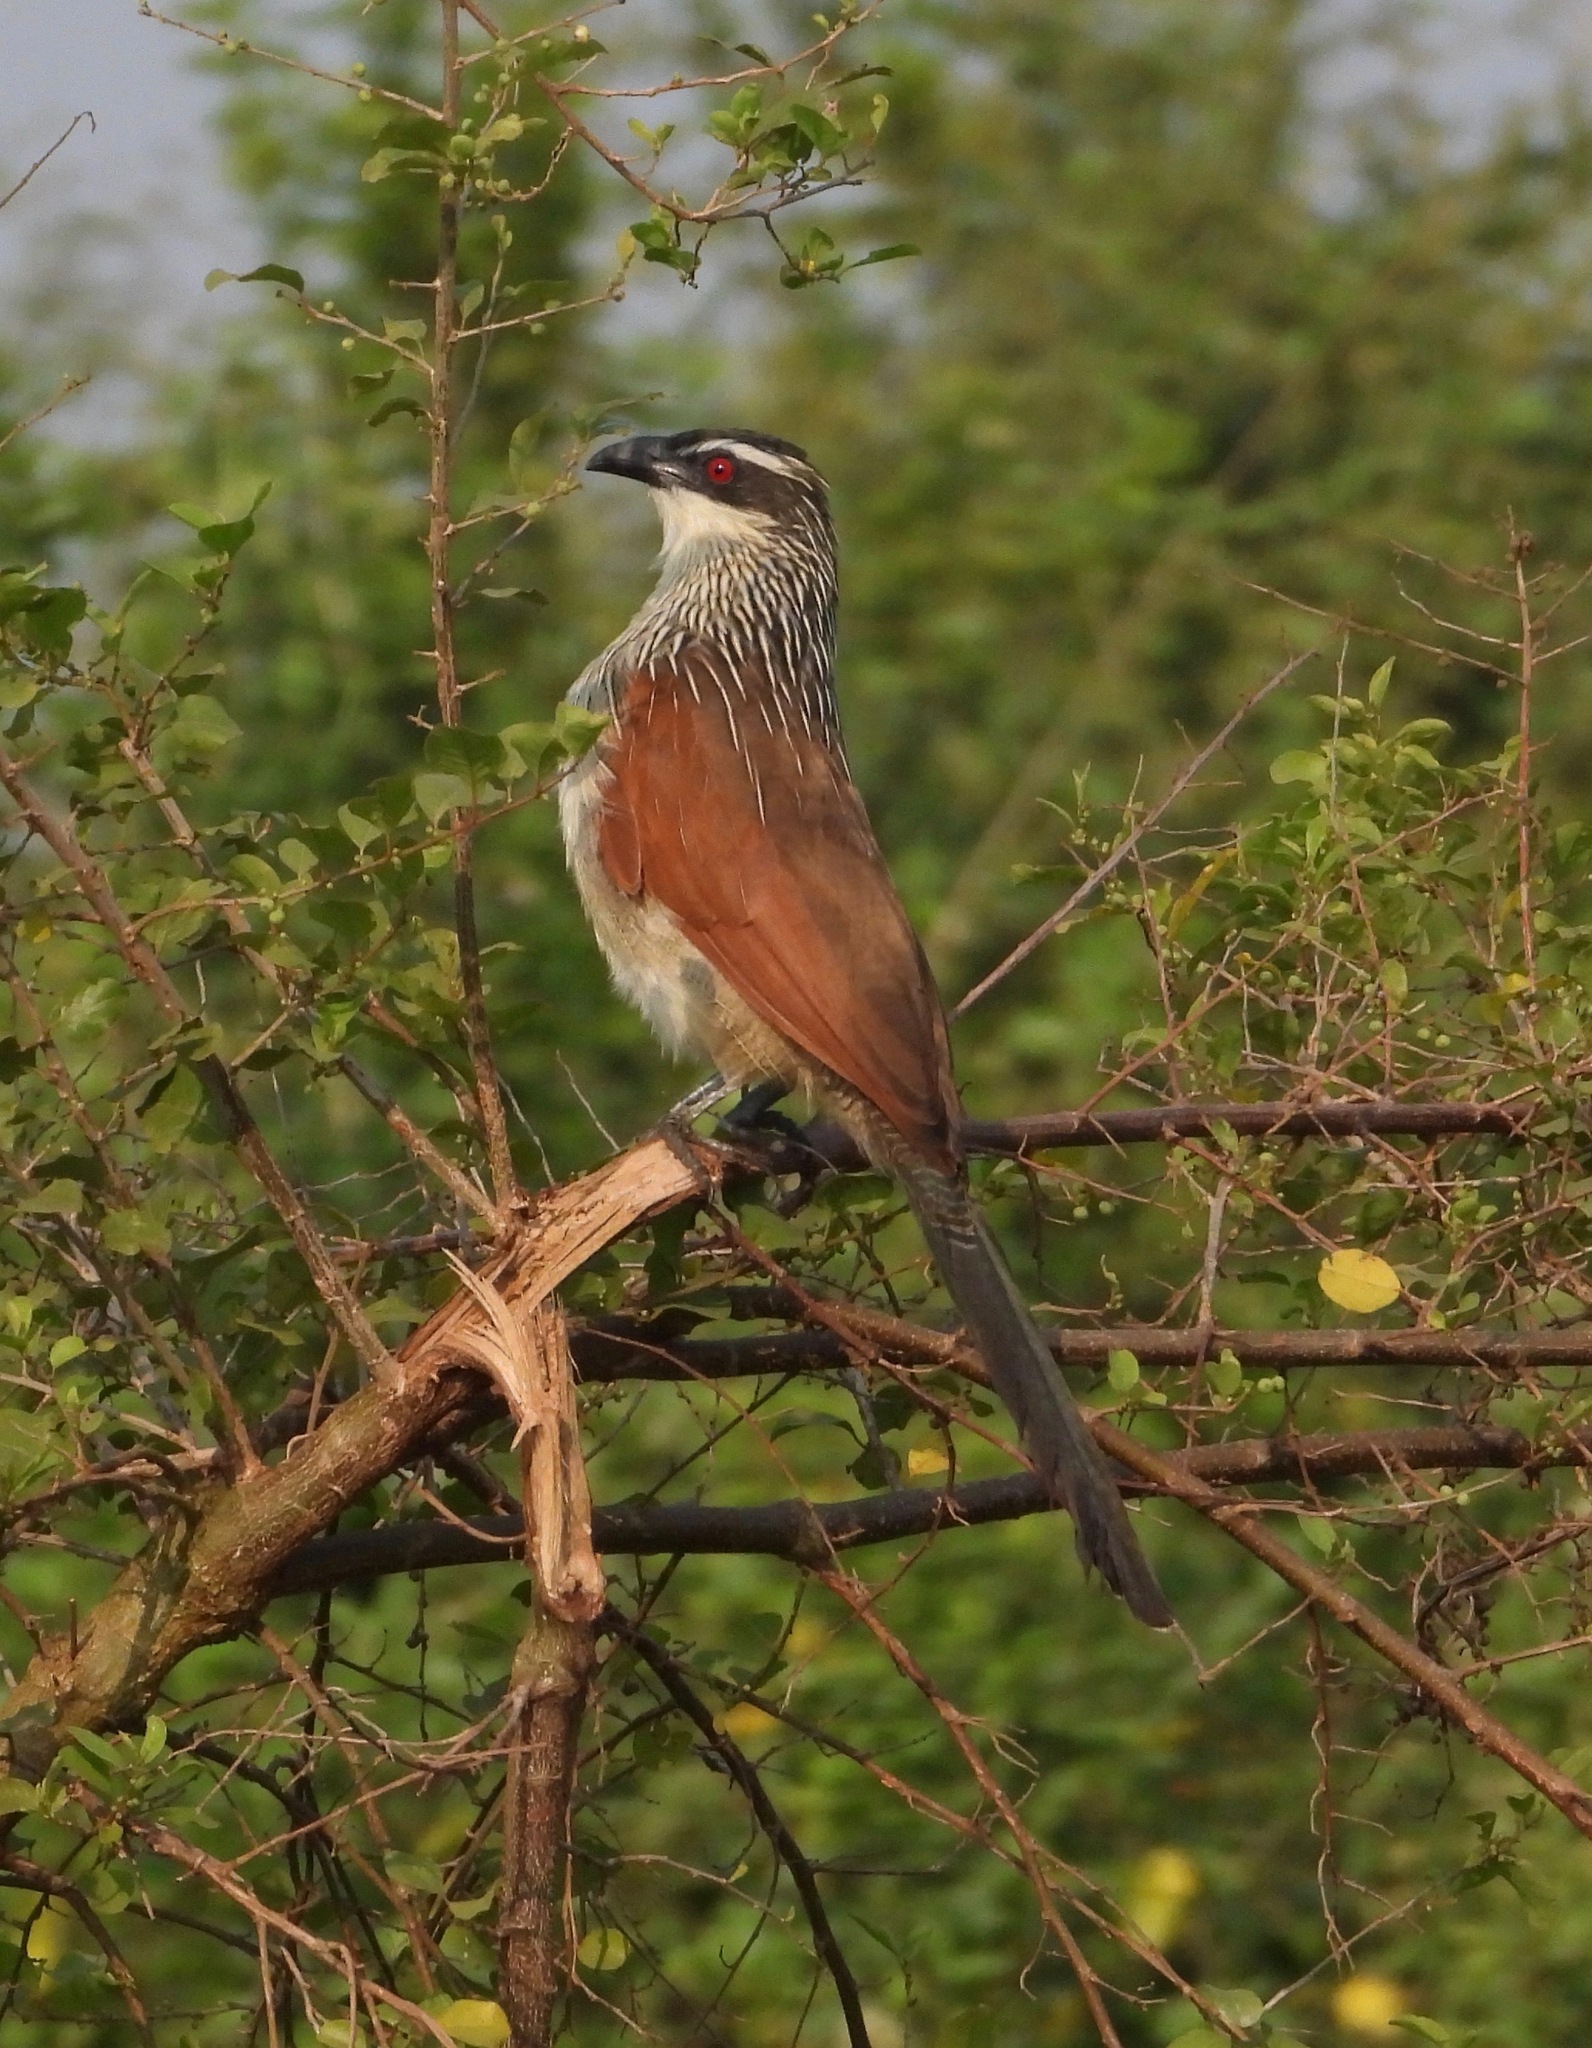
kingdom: Animalia
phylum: Chordata
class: Aves
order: Cuculiformes
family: Cuculidae
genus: Centropus
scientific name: Centropus superciliosus
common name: White-browed coucal
